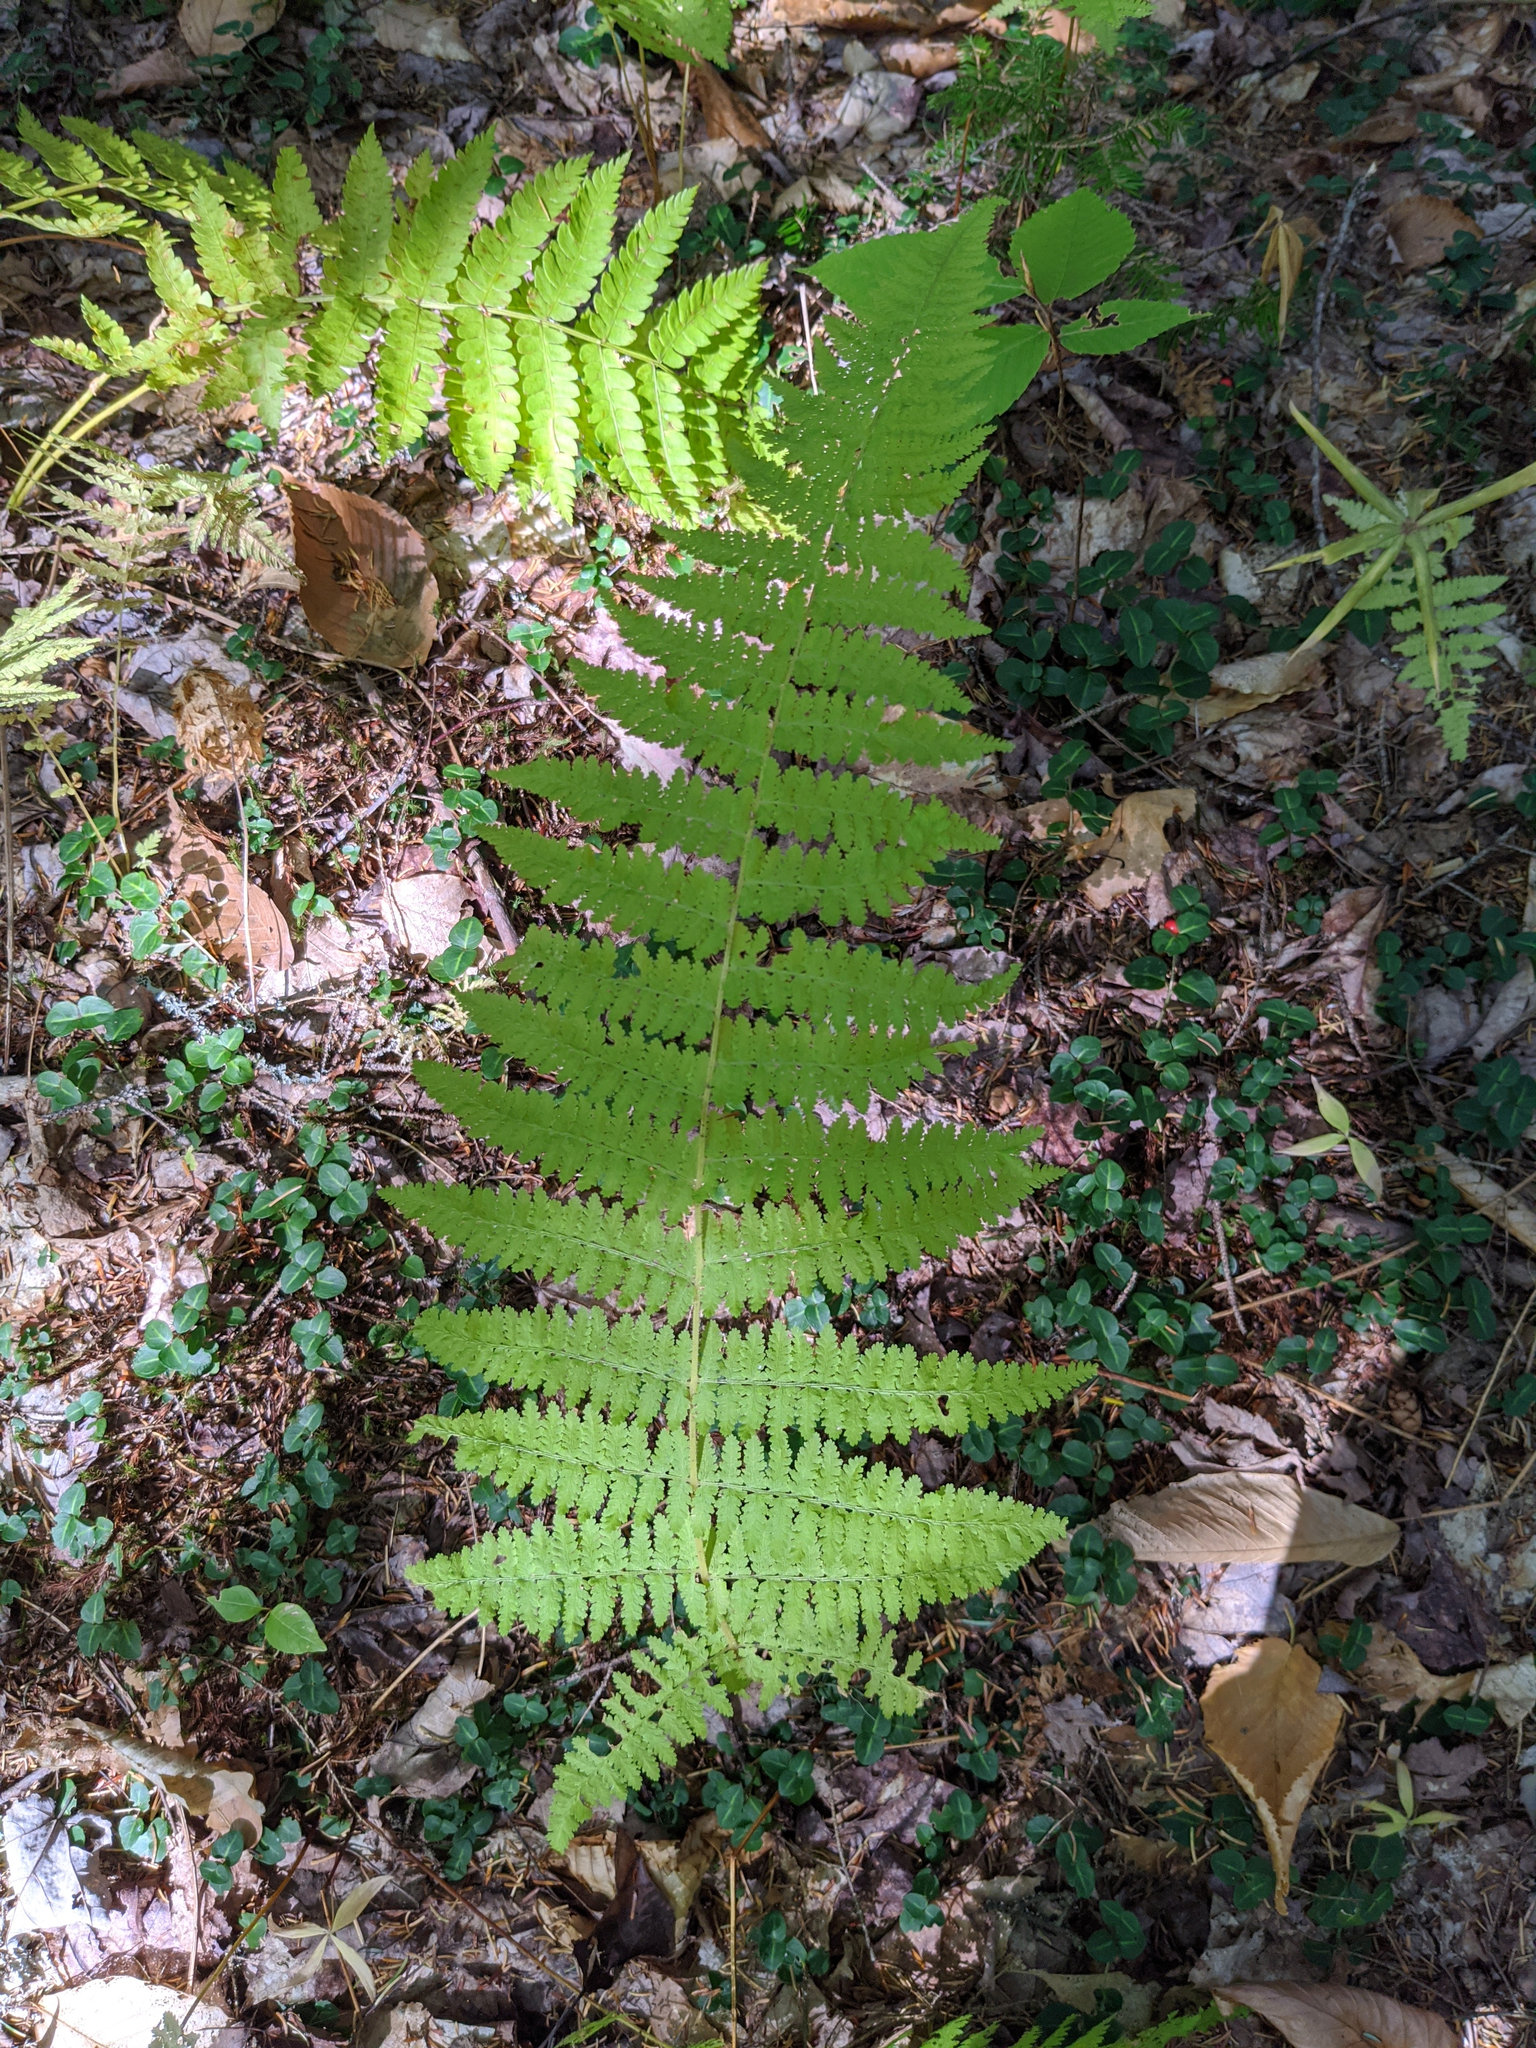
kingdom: Plantae
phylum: Tracheophyta
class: Polypodiopsida
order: Polypodiales
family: Dennstaedtiaceae
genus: Sitobolium
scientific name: Sitobolium punctilobum
